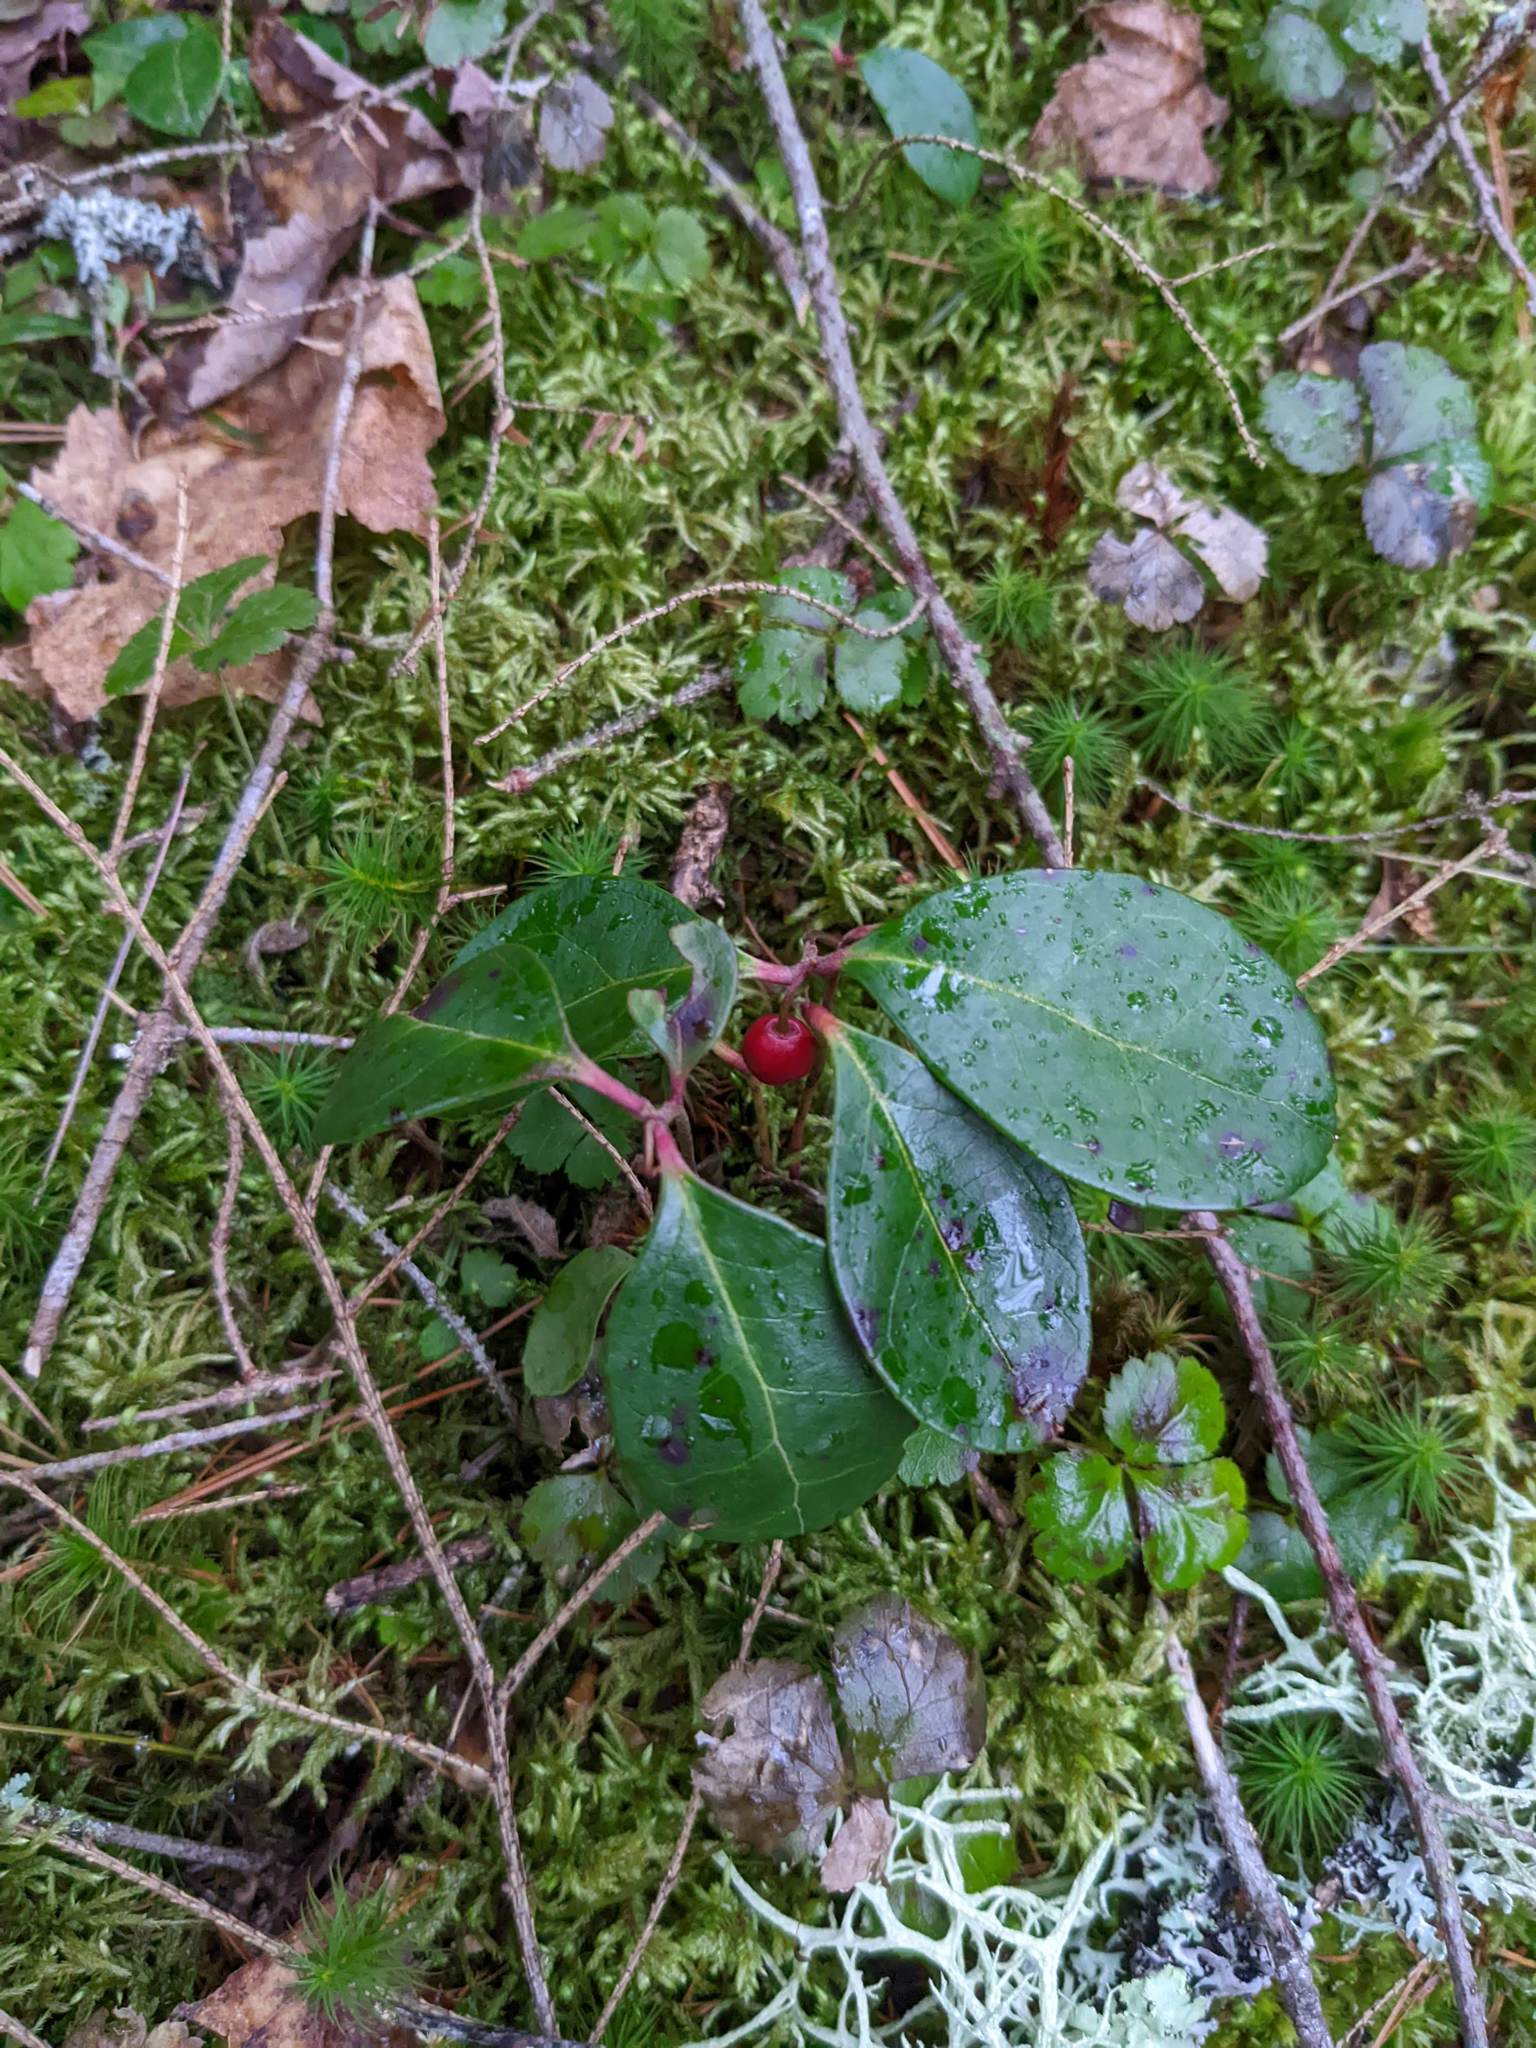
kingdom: Plantae
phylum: Tracheophyta
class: Magnoliopsida
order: Ericales
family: Ericaceae
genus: Gaultheria
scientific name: Gaultheria procumbens
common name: Checkerberry
